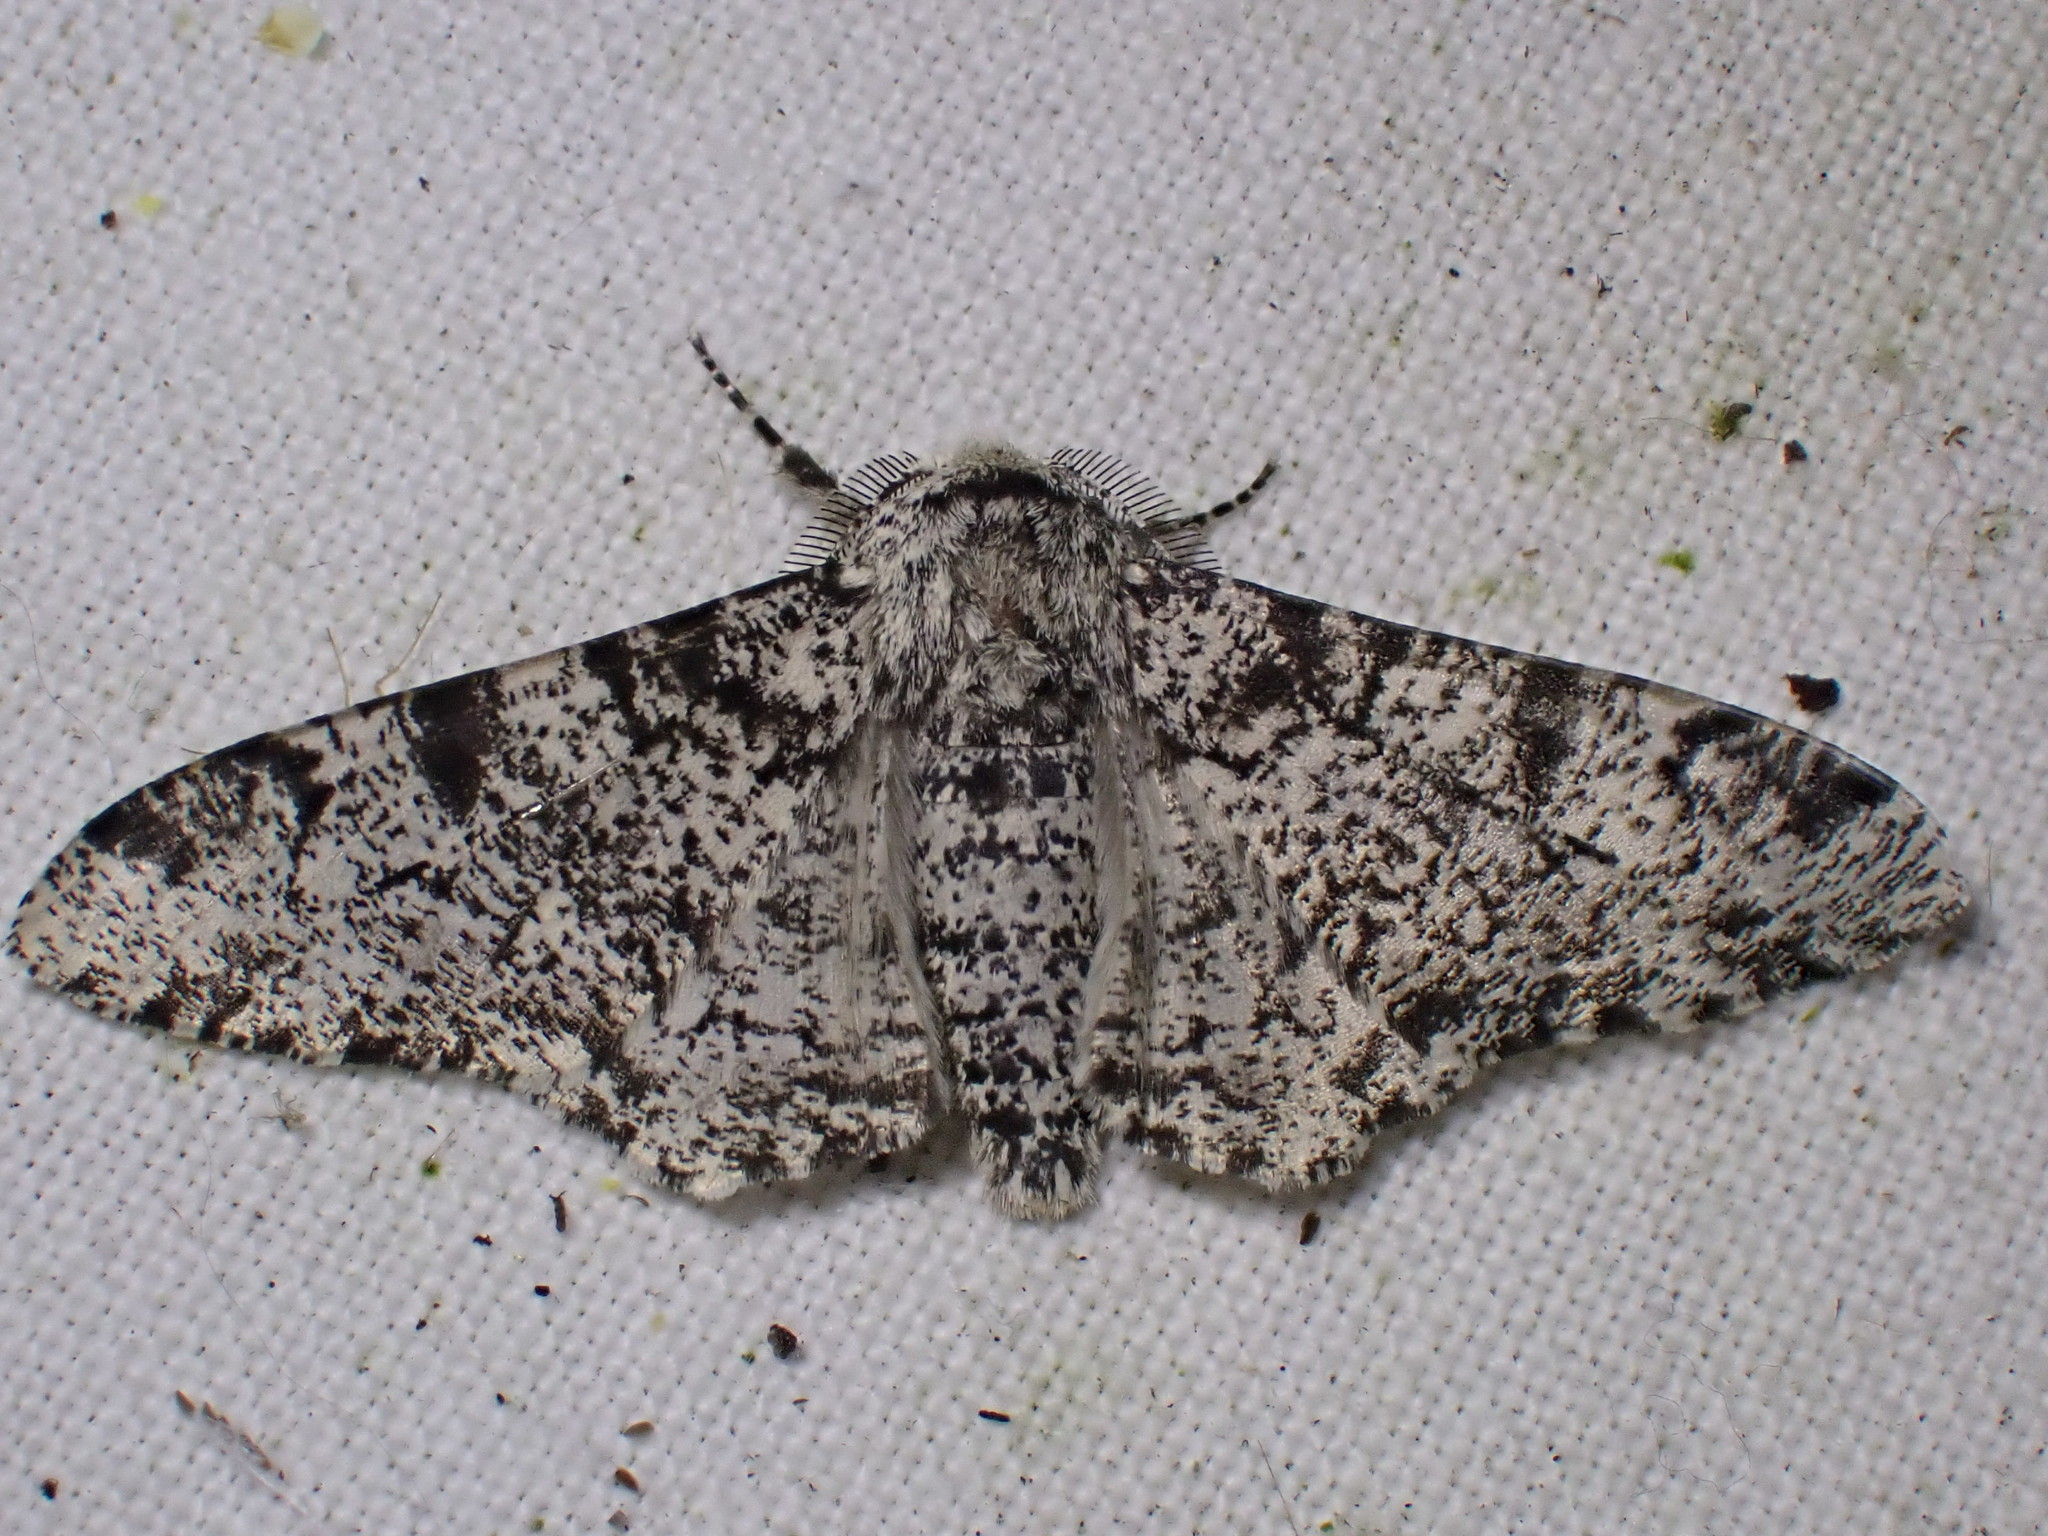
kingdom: Animalia
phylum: Arthropoda
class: Insecta
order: Lepidoptera
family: Geometridae
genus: Biston
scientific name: Biston betularia
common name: Peppered moth
